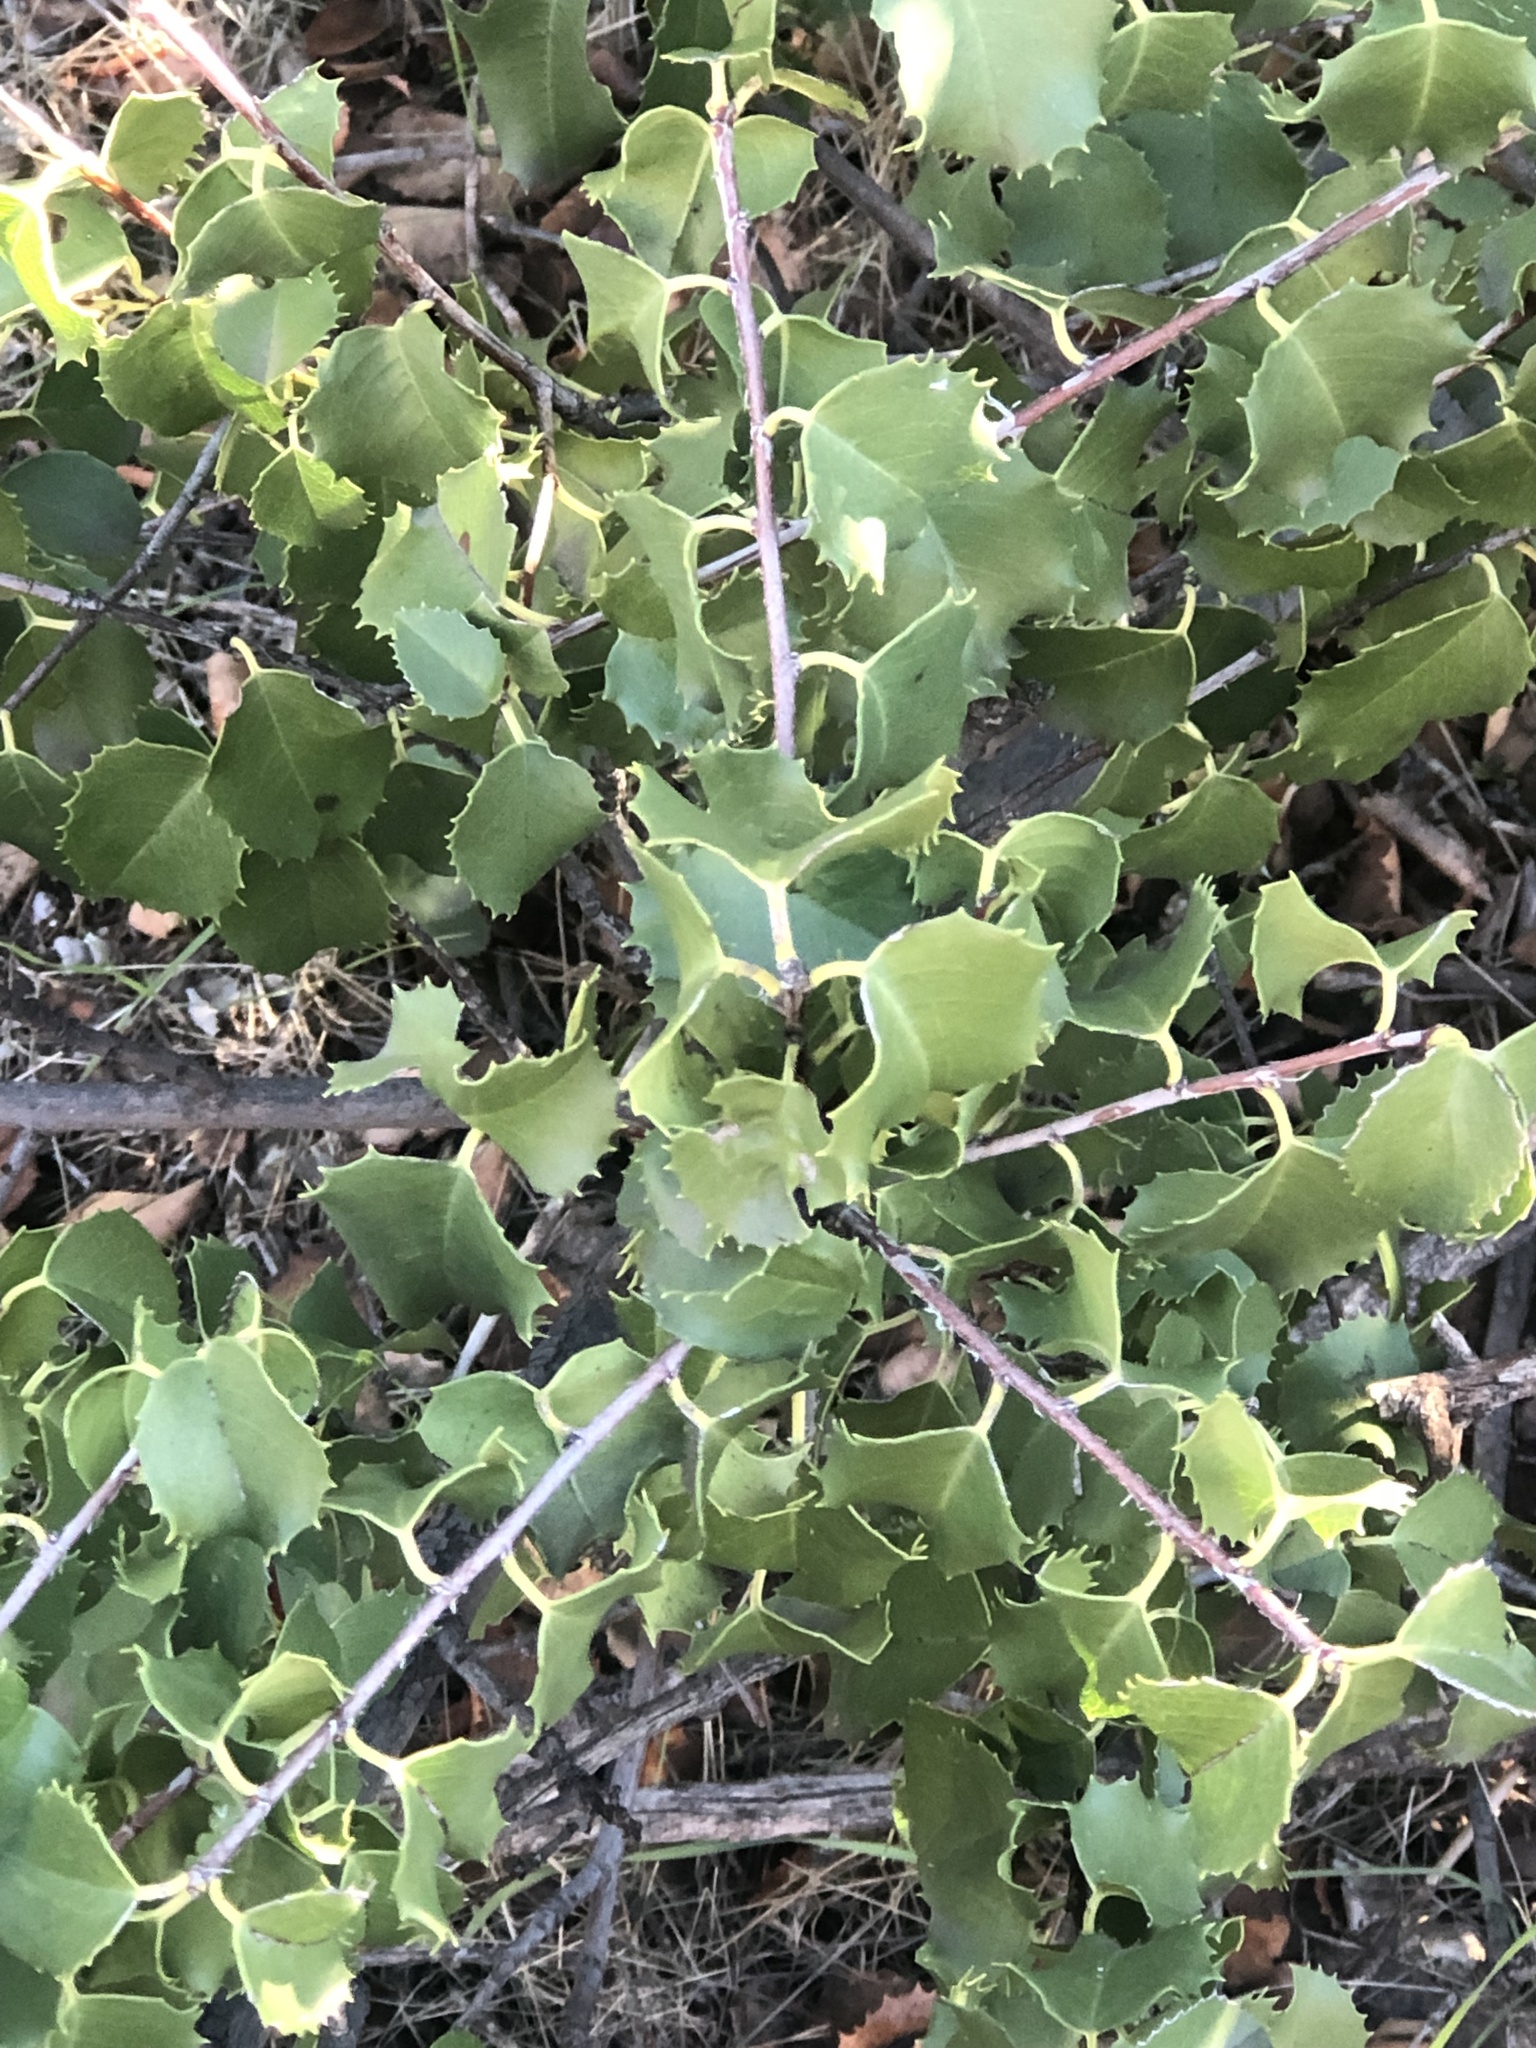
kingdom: Plantae
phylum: Tracheophyta
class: Magnoliopsida
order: Rosales
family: Rosaceae
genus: Prunus
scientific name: Prunus ilicifolia
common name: Hollyleaf cherry
